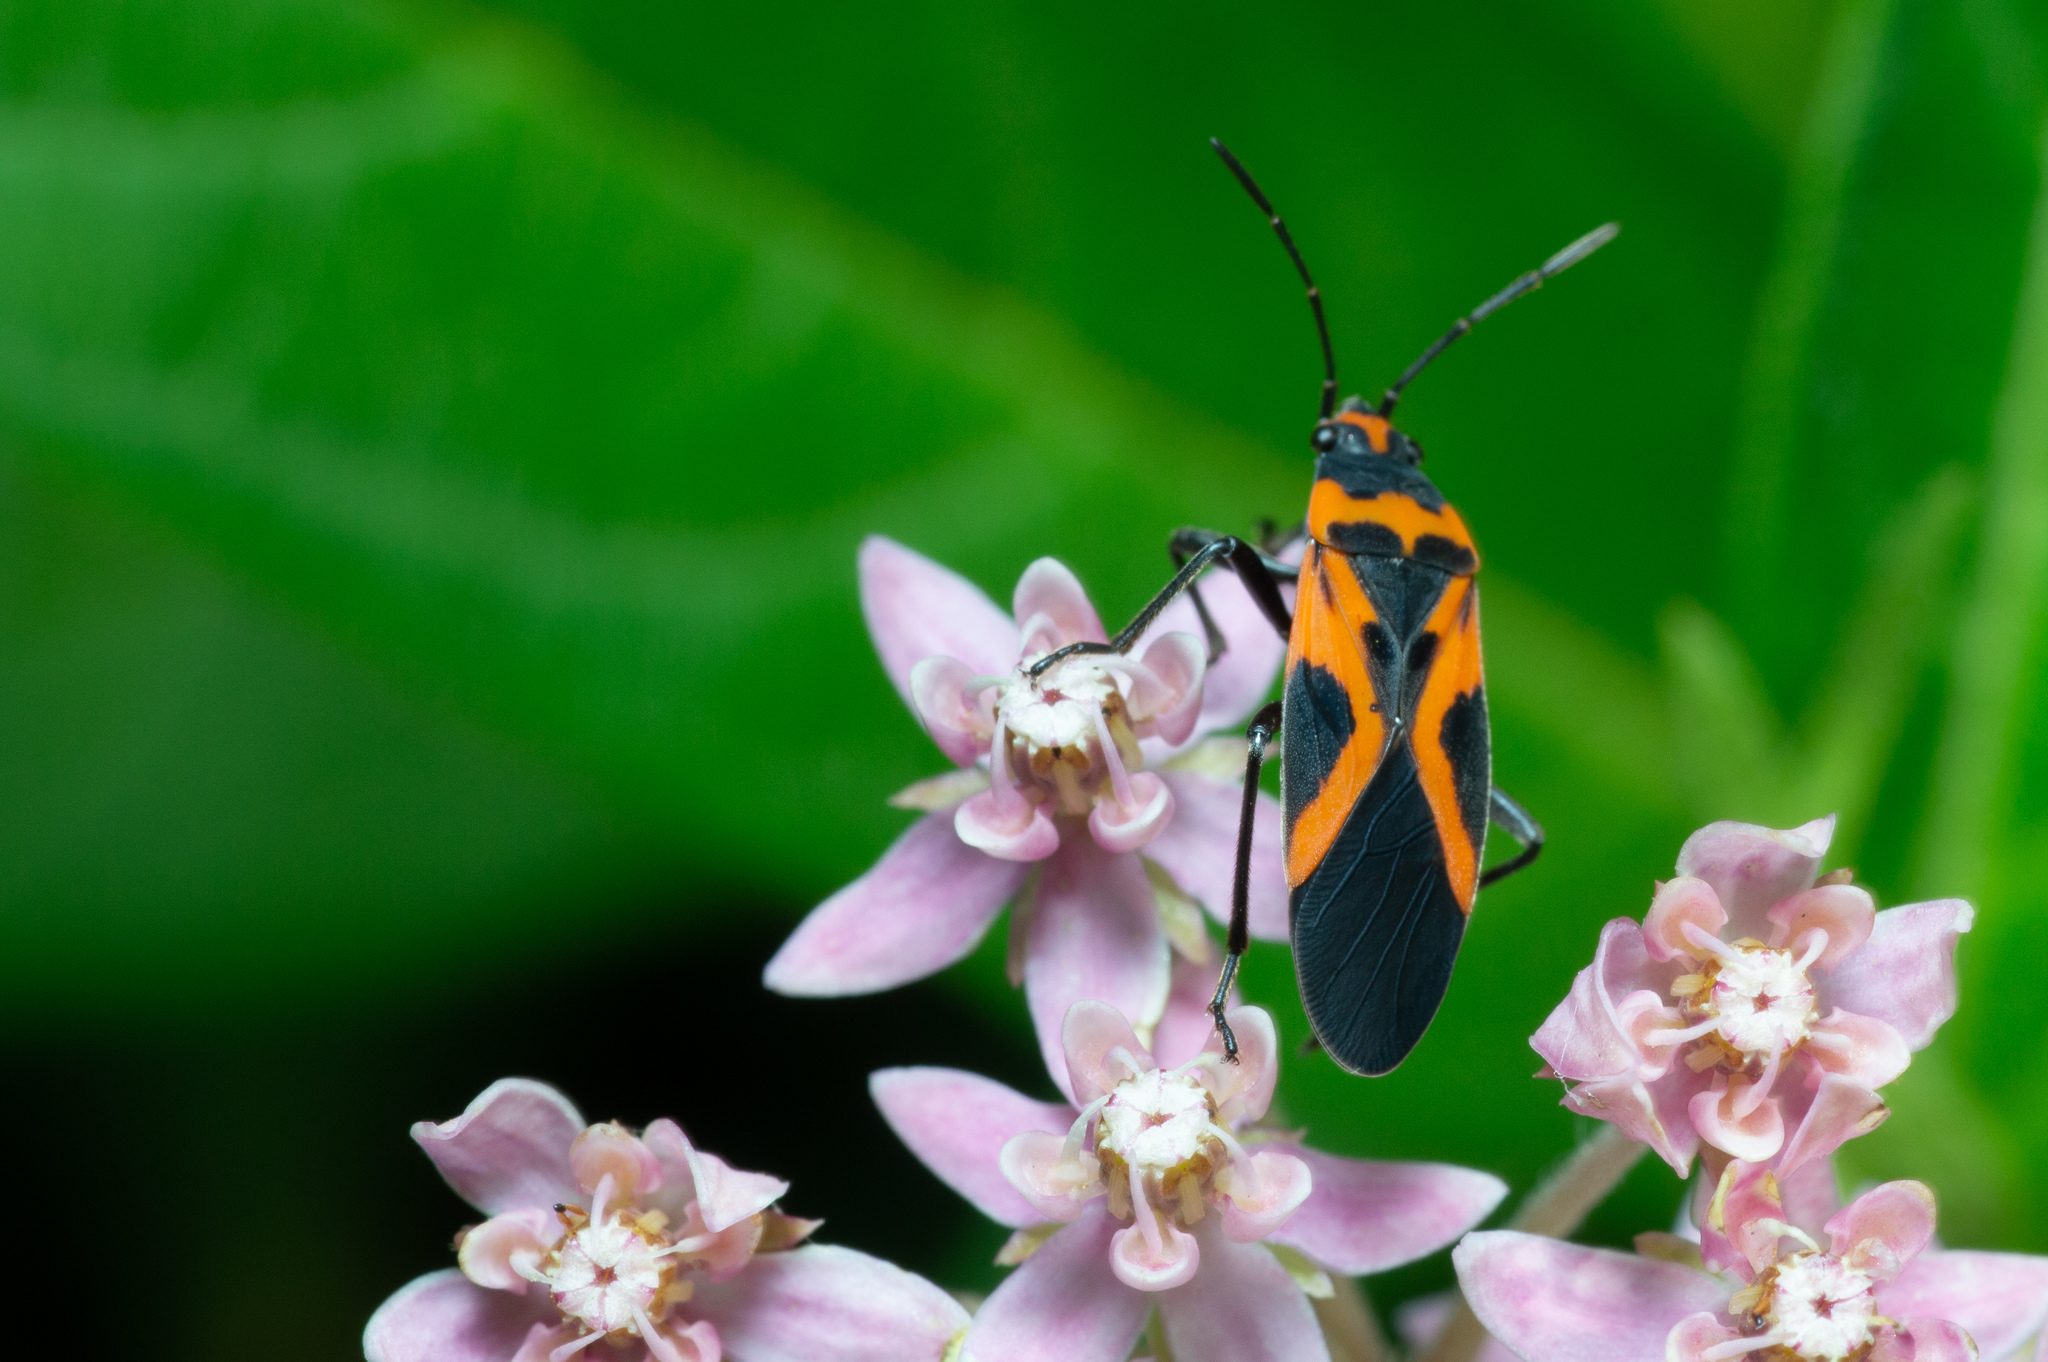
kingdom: Animalia
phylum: Arthropoda
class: Insecta
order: Hemiptera
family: Lygaeidae
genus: Lygaeus
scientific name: Lygaeus turcicus
